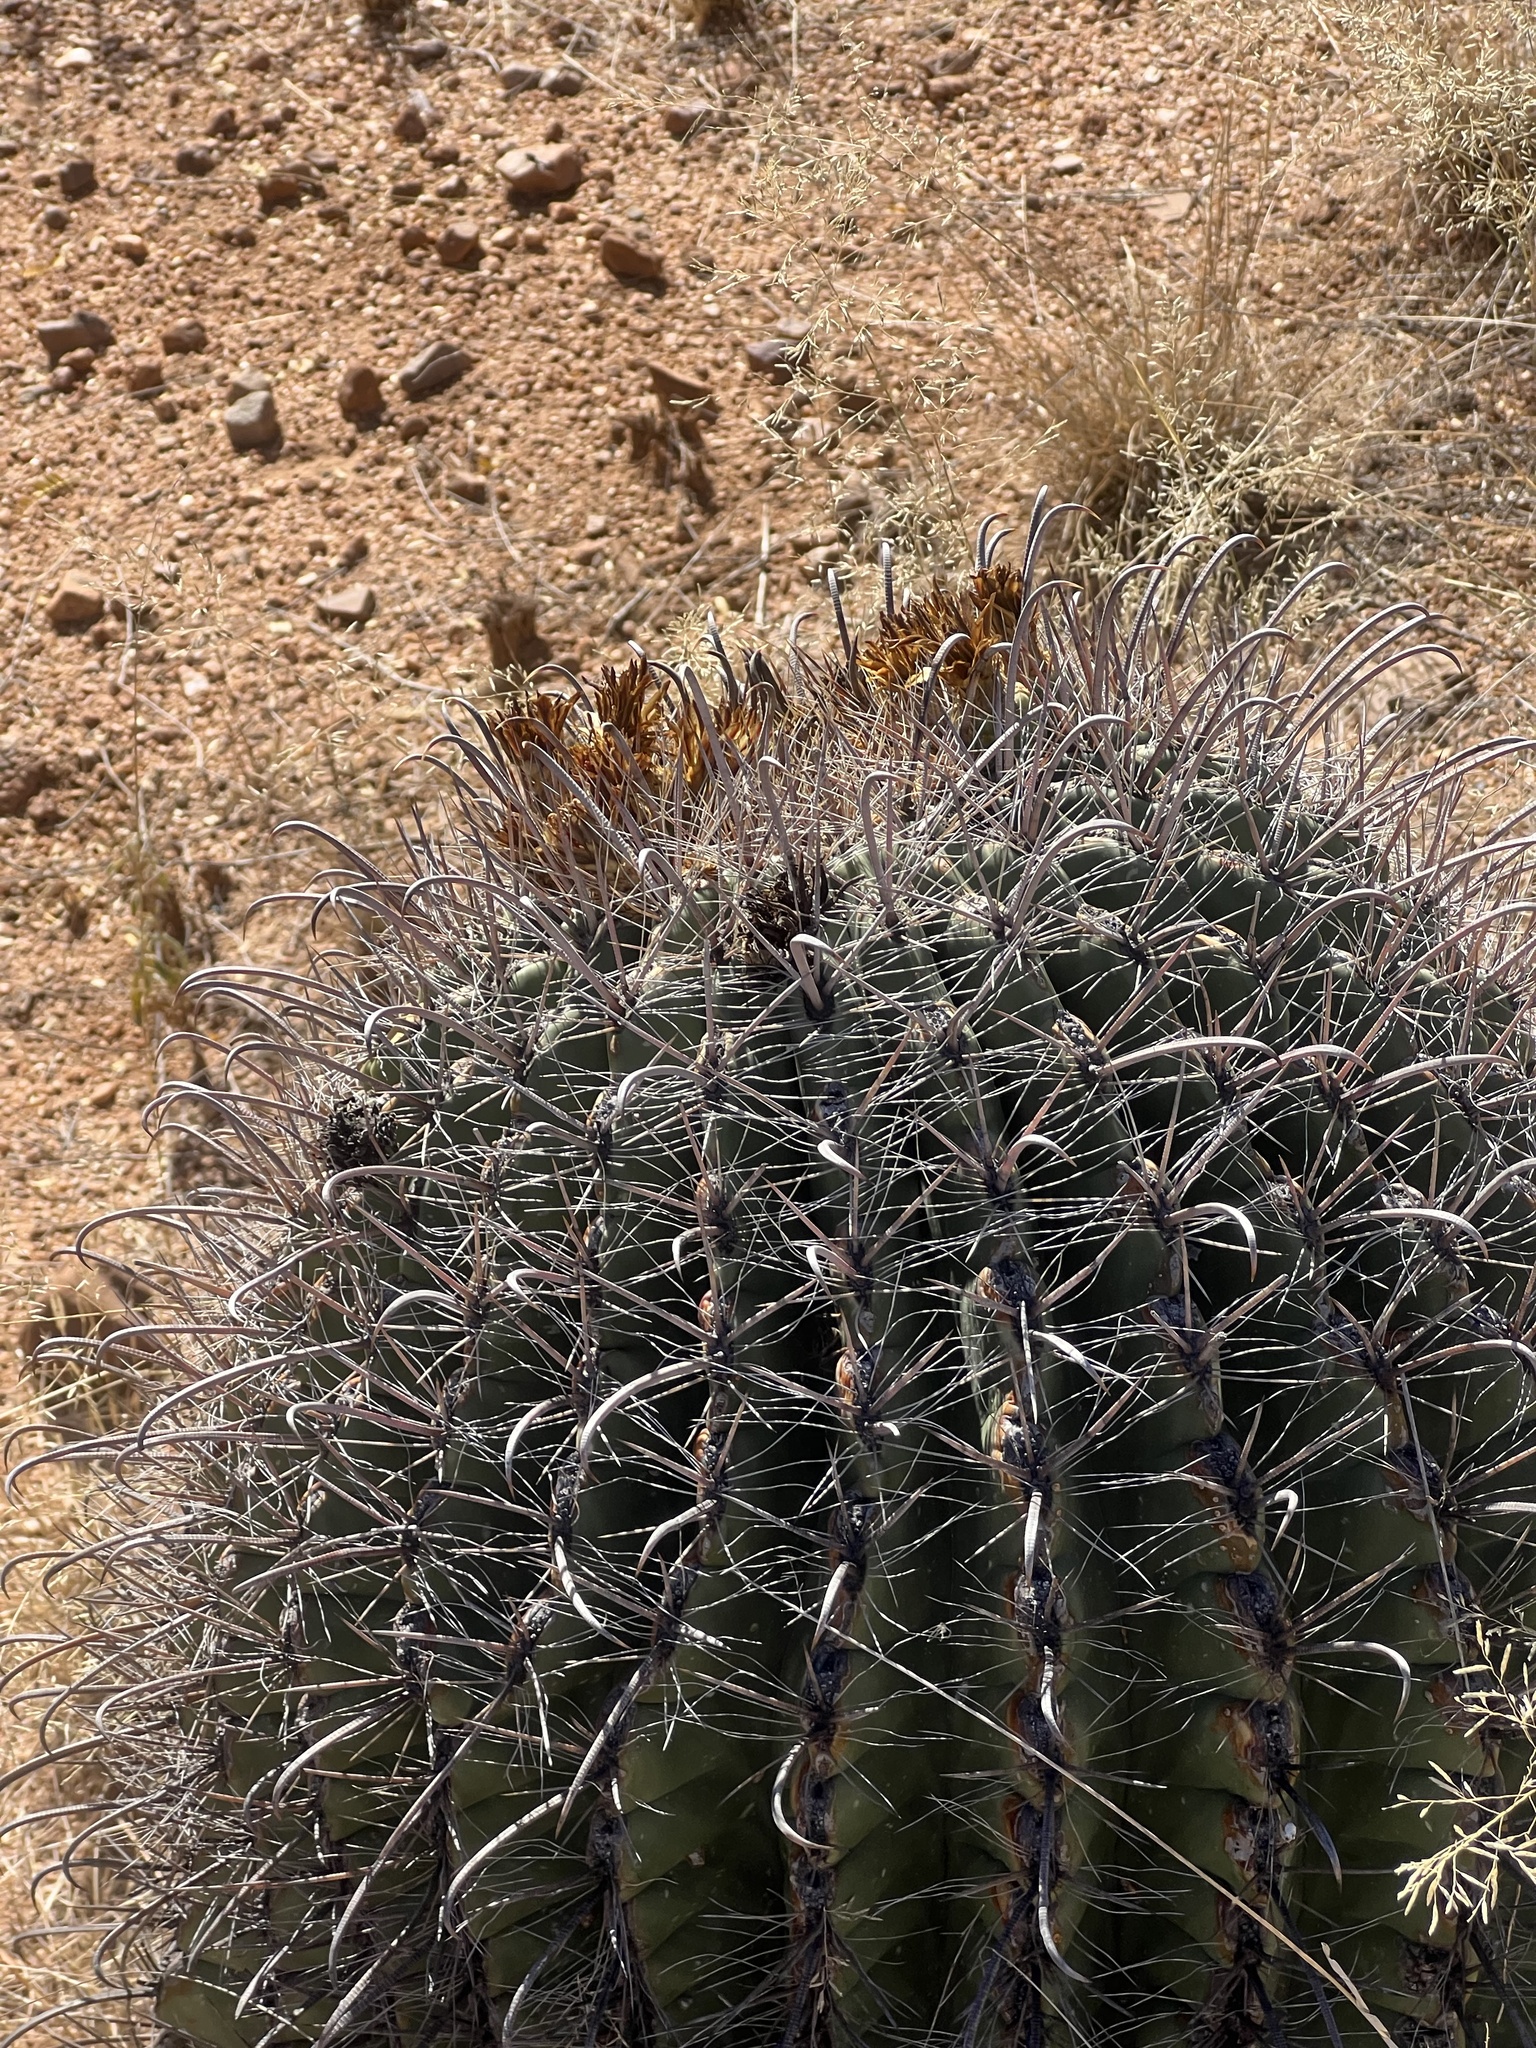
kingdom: Plantae
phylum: Tracheophyta
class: Magnoliopsida
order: Caryophyllales
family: Cactaceae
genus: Ferocactus
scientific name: Ferocactus wislizeni
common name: Candy barrel cactus
